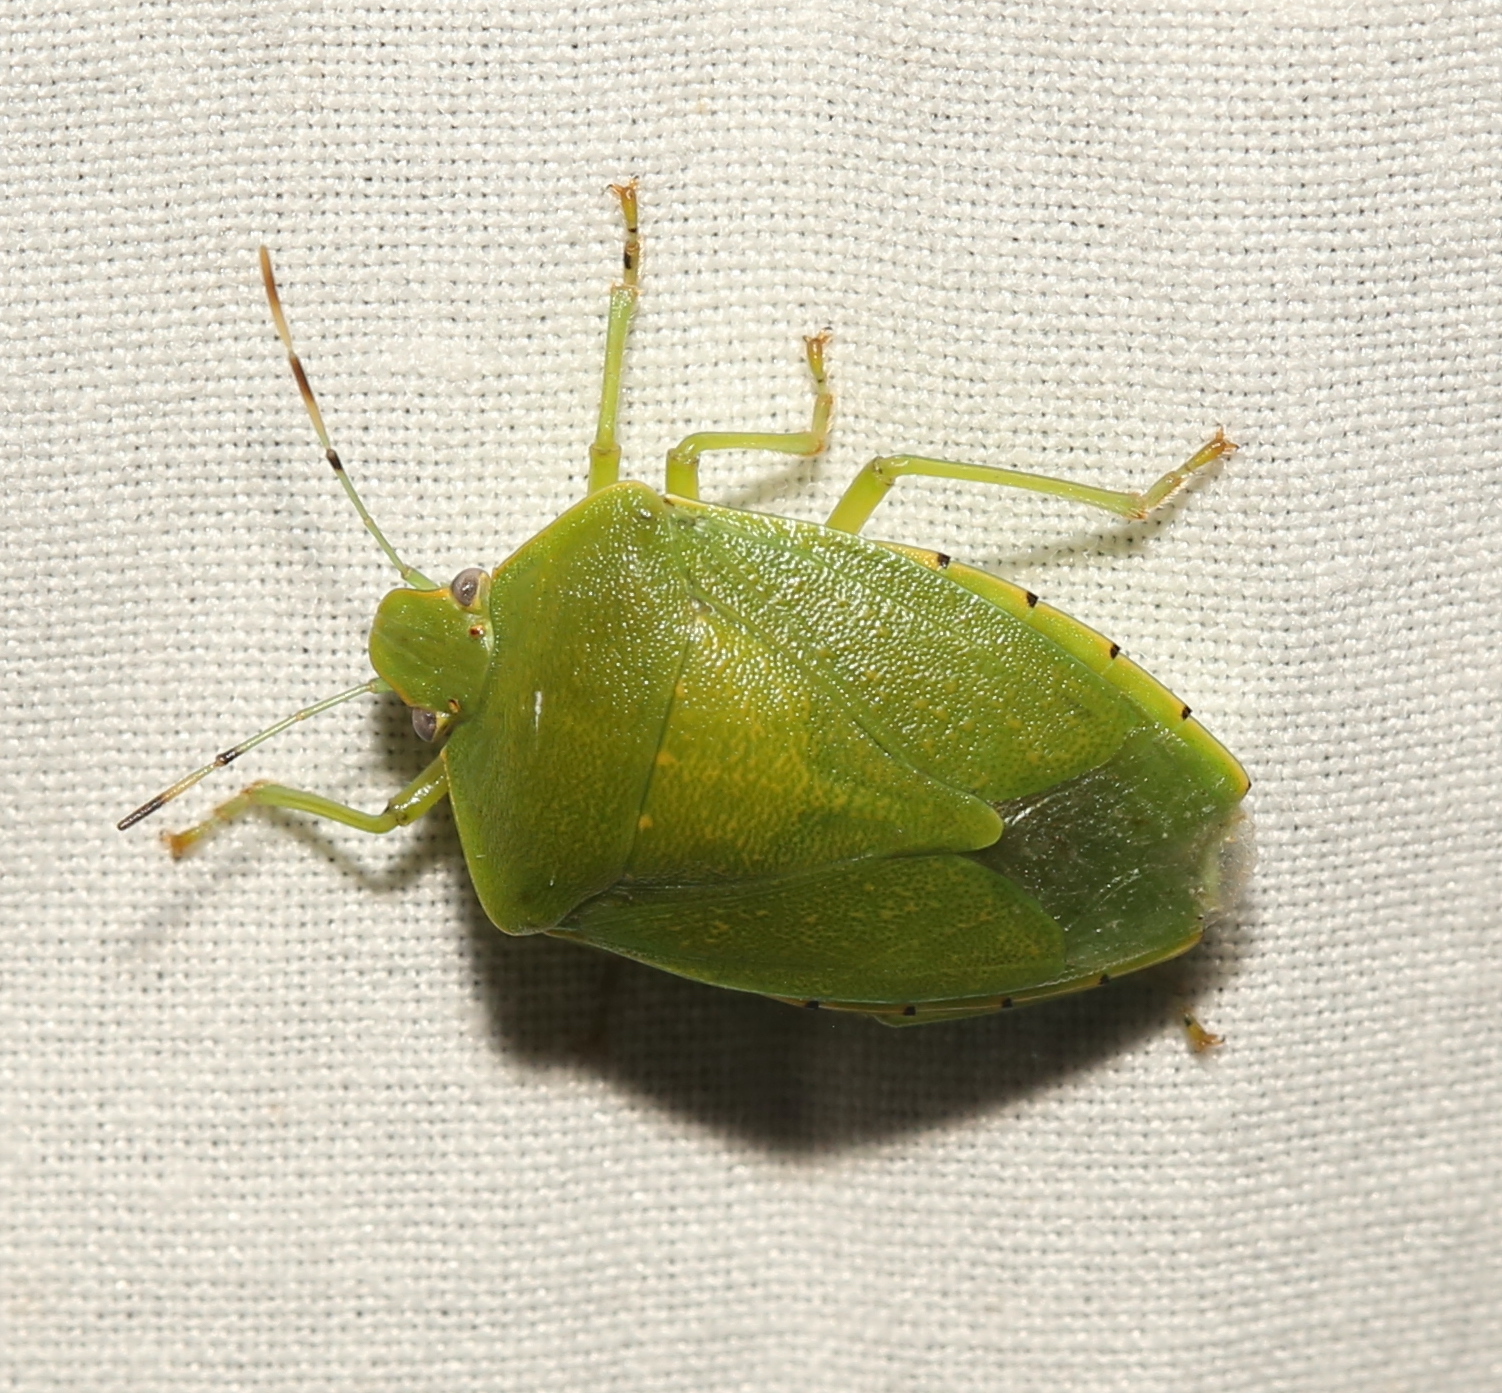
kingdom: Animalia
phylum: Arthropoda
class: Insecta
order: Hemiptera
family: Pentatomidae
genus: Chinavia
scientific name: Chinavia hilaris
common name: Green stink bug
